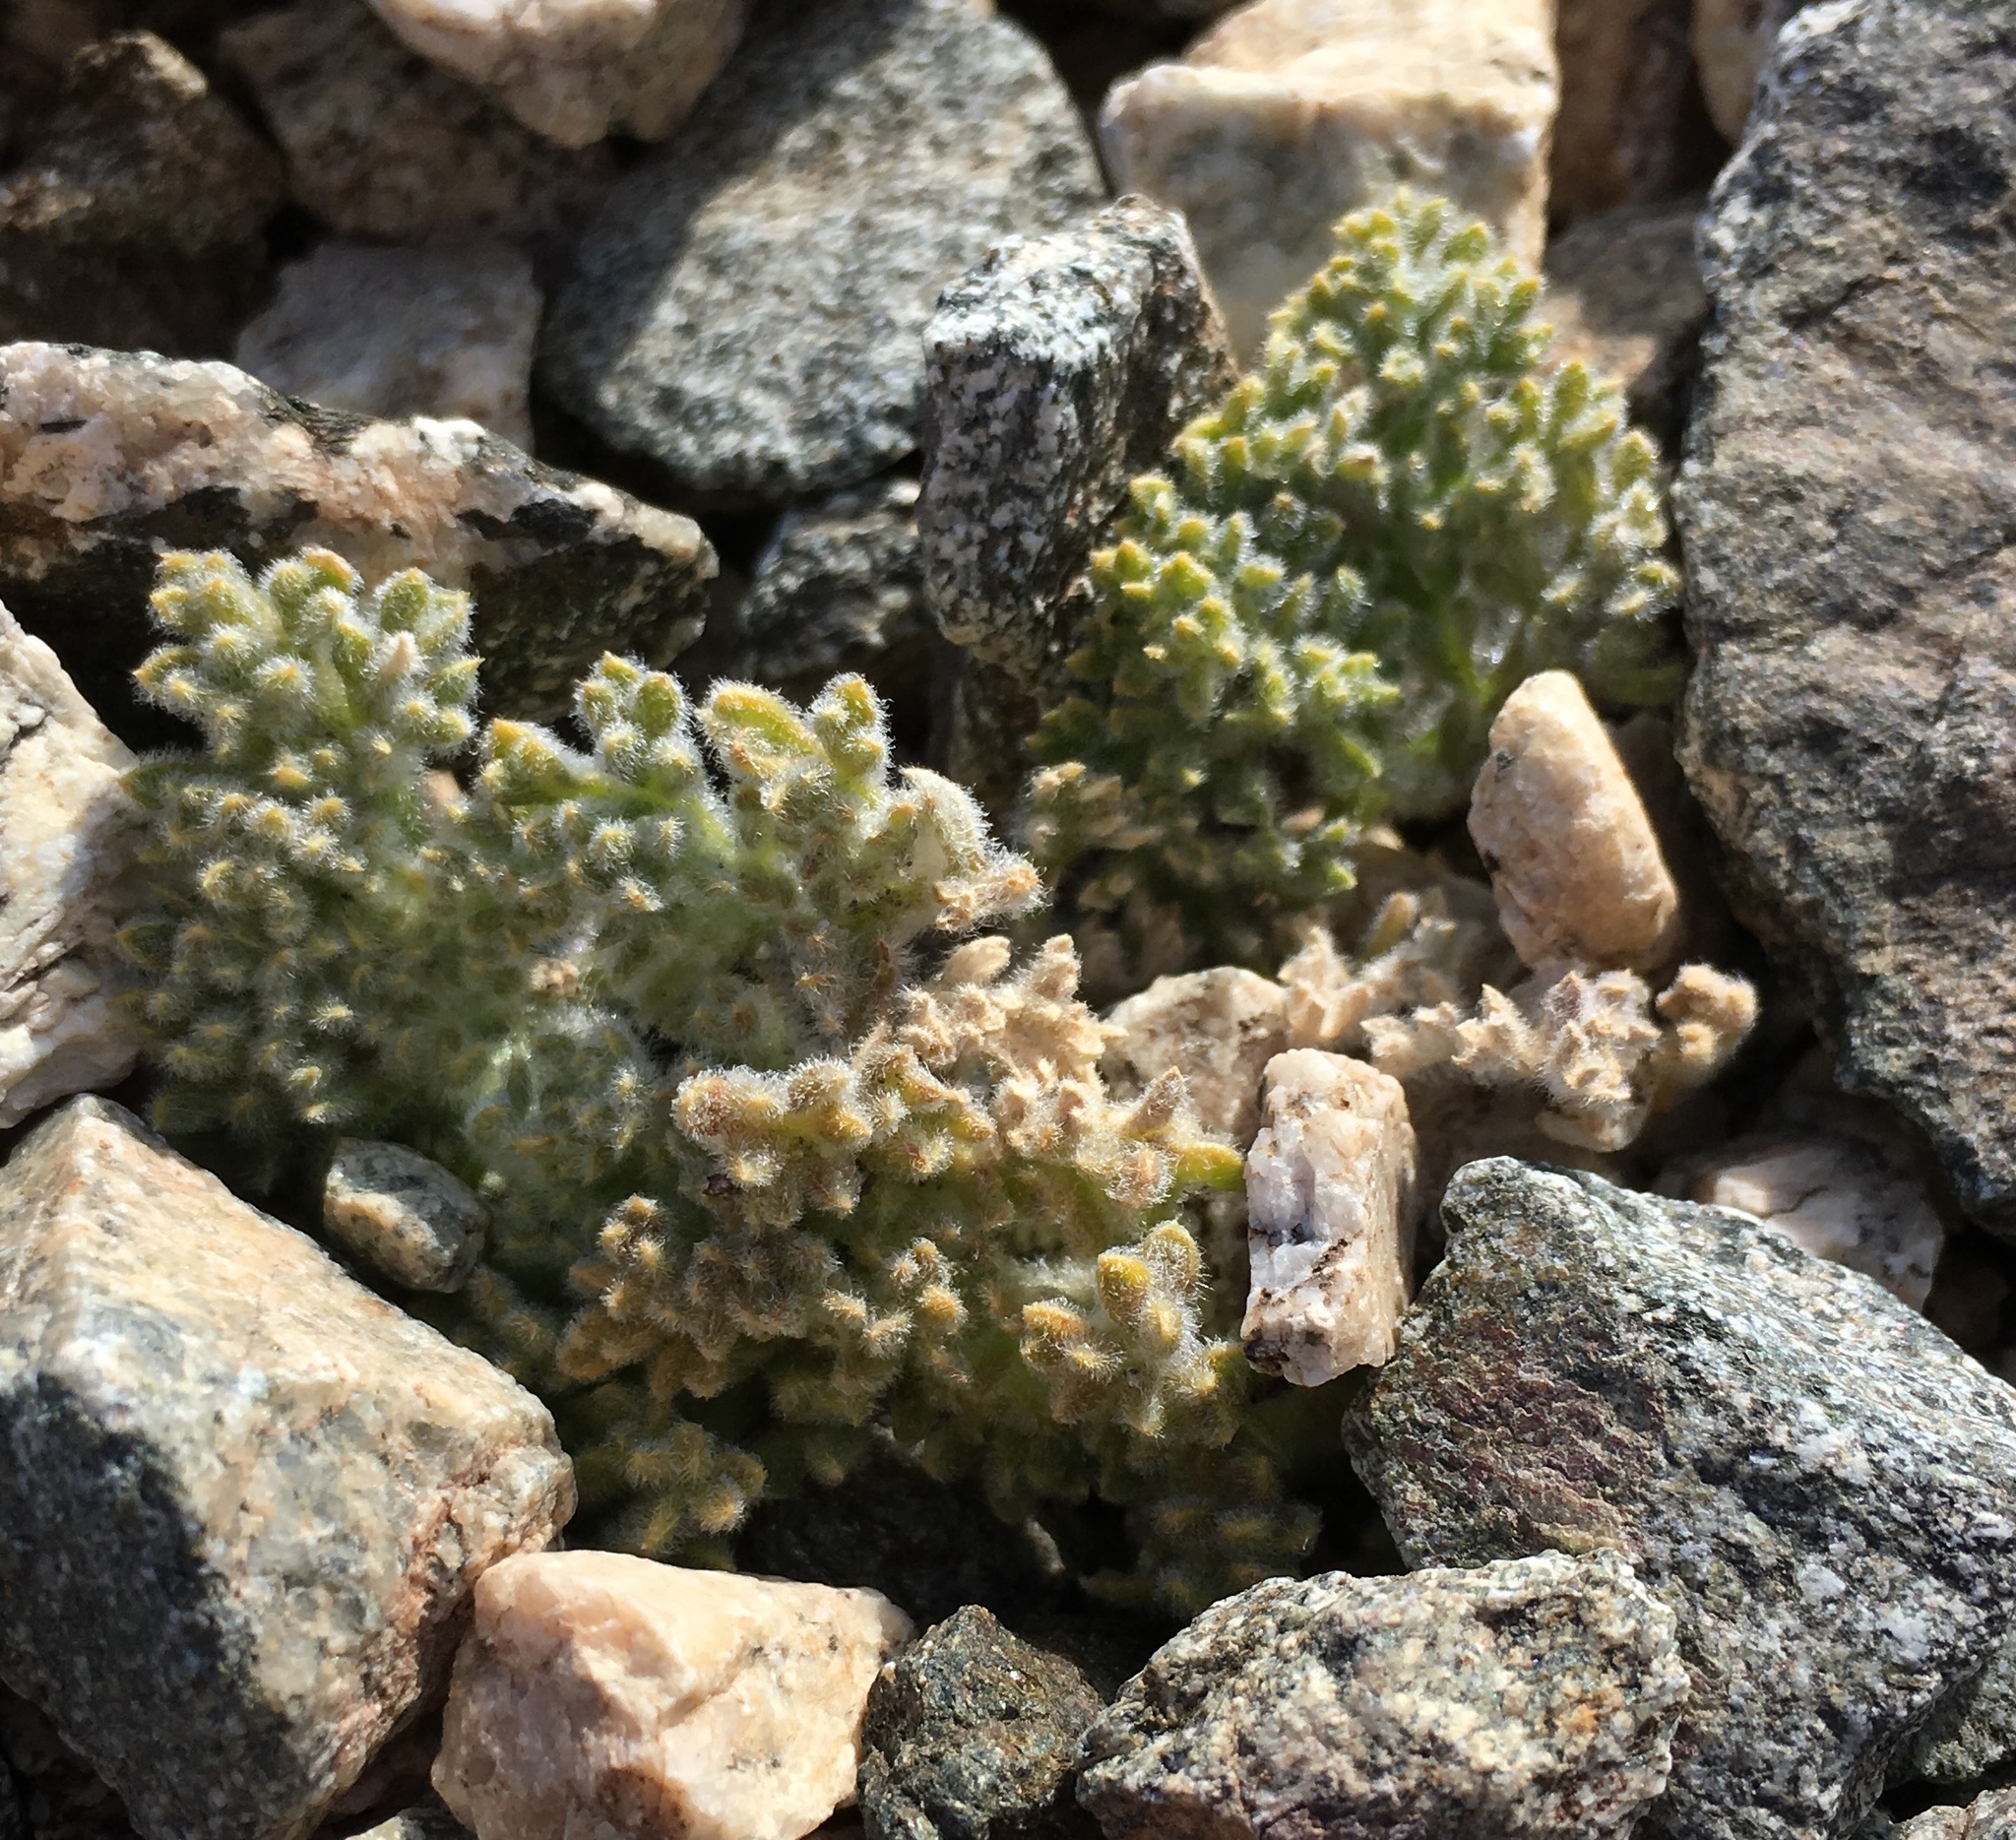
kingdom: Plantae
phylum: Tracheophyta
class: Magnoliopsida
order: Apiales
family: Apiaceae
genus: Oreonana
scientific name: Oreonana vestita
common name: Woolly mountain-parsley
